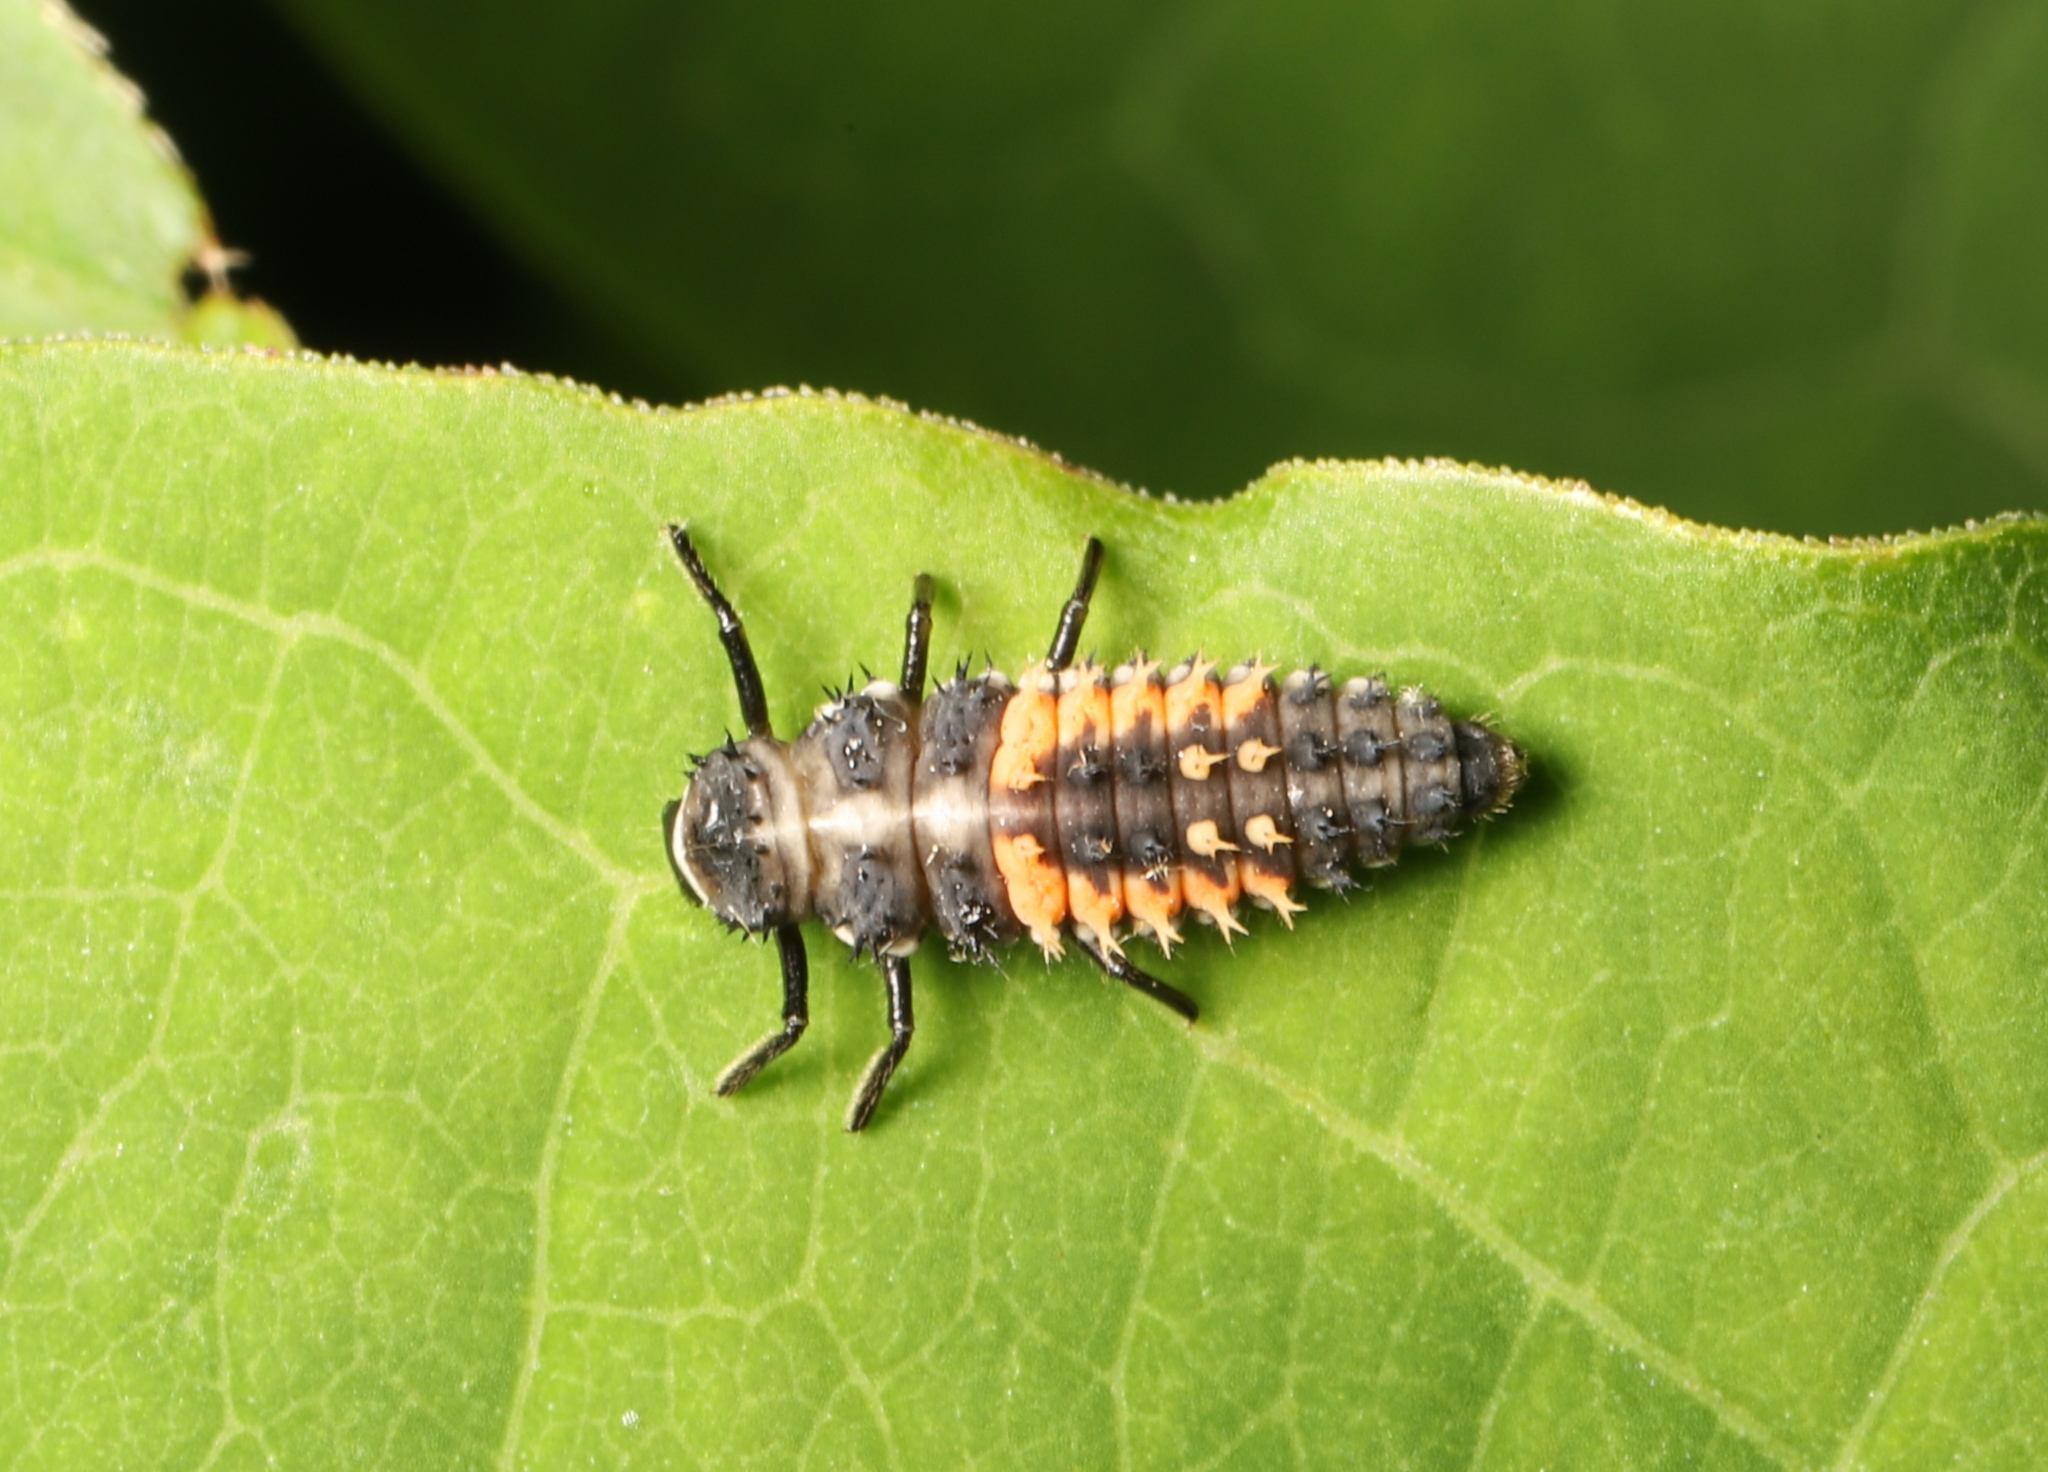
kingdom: Animalia
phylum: Arthropoda
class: Insecta
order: Coleoptera
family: Coccinellidae
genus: Harmonia
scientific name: Harmonia axyridis
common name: Harlequin ladybird
